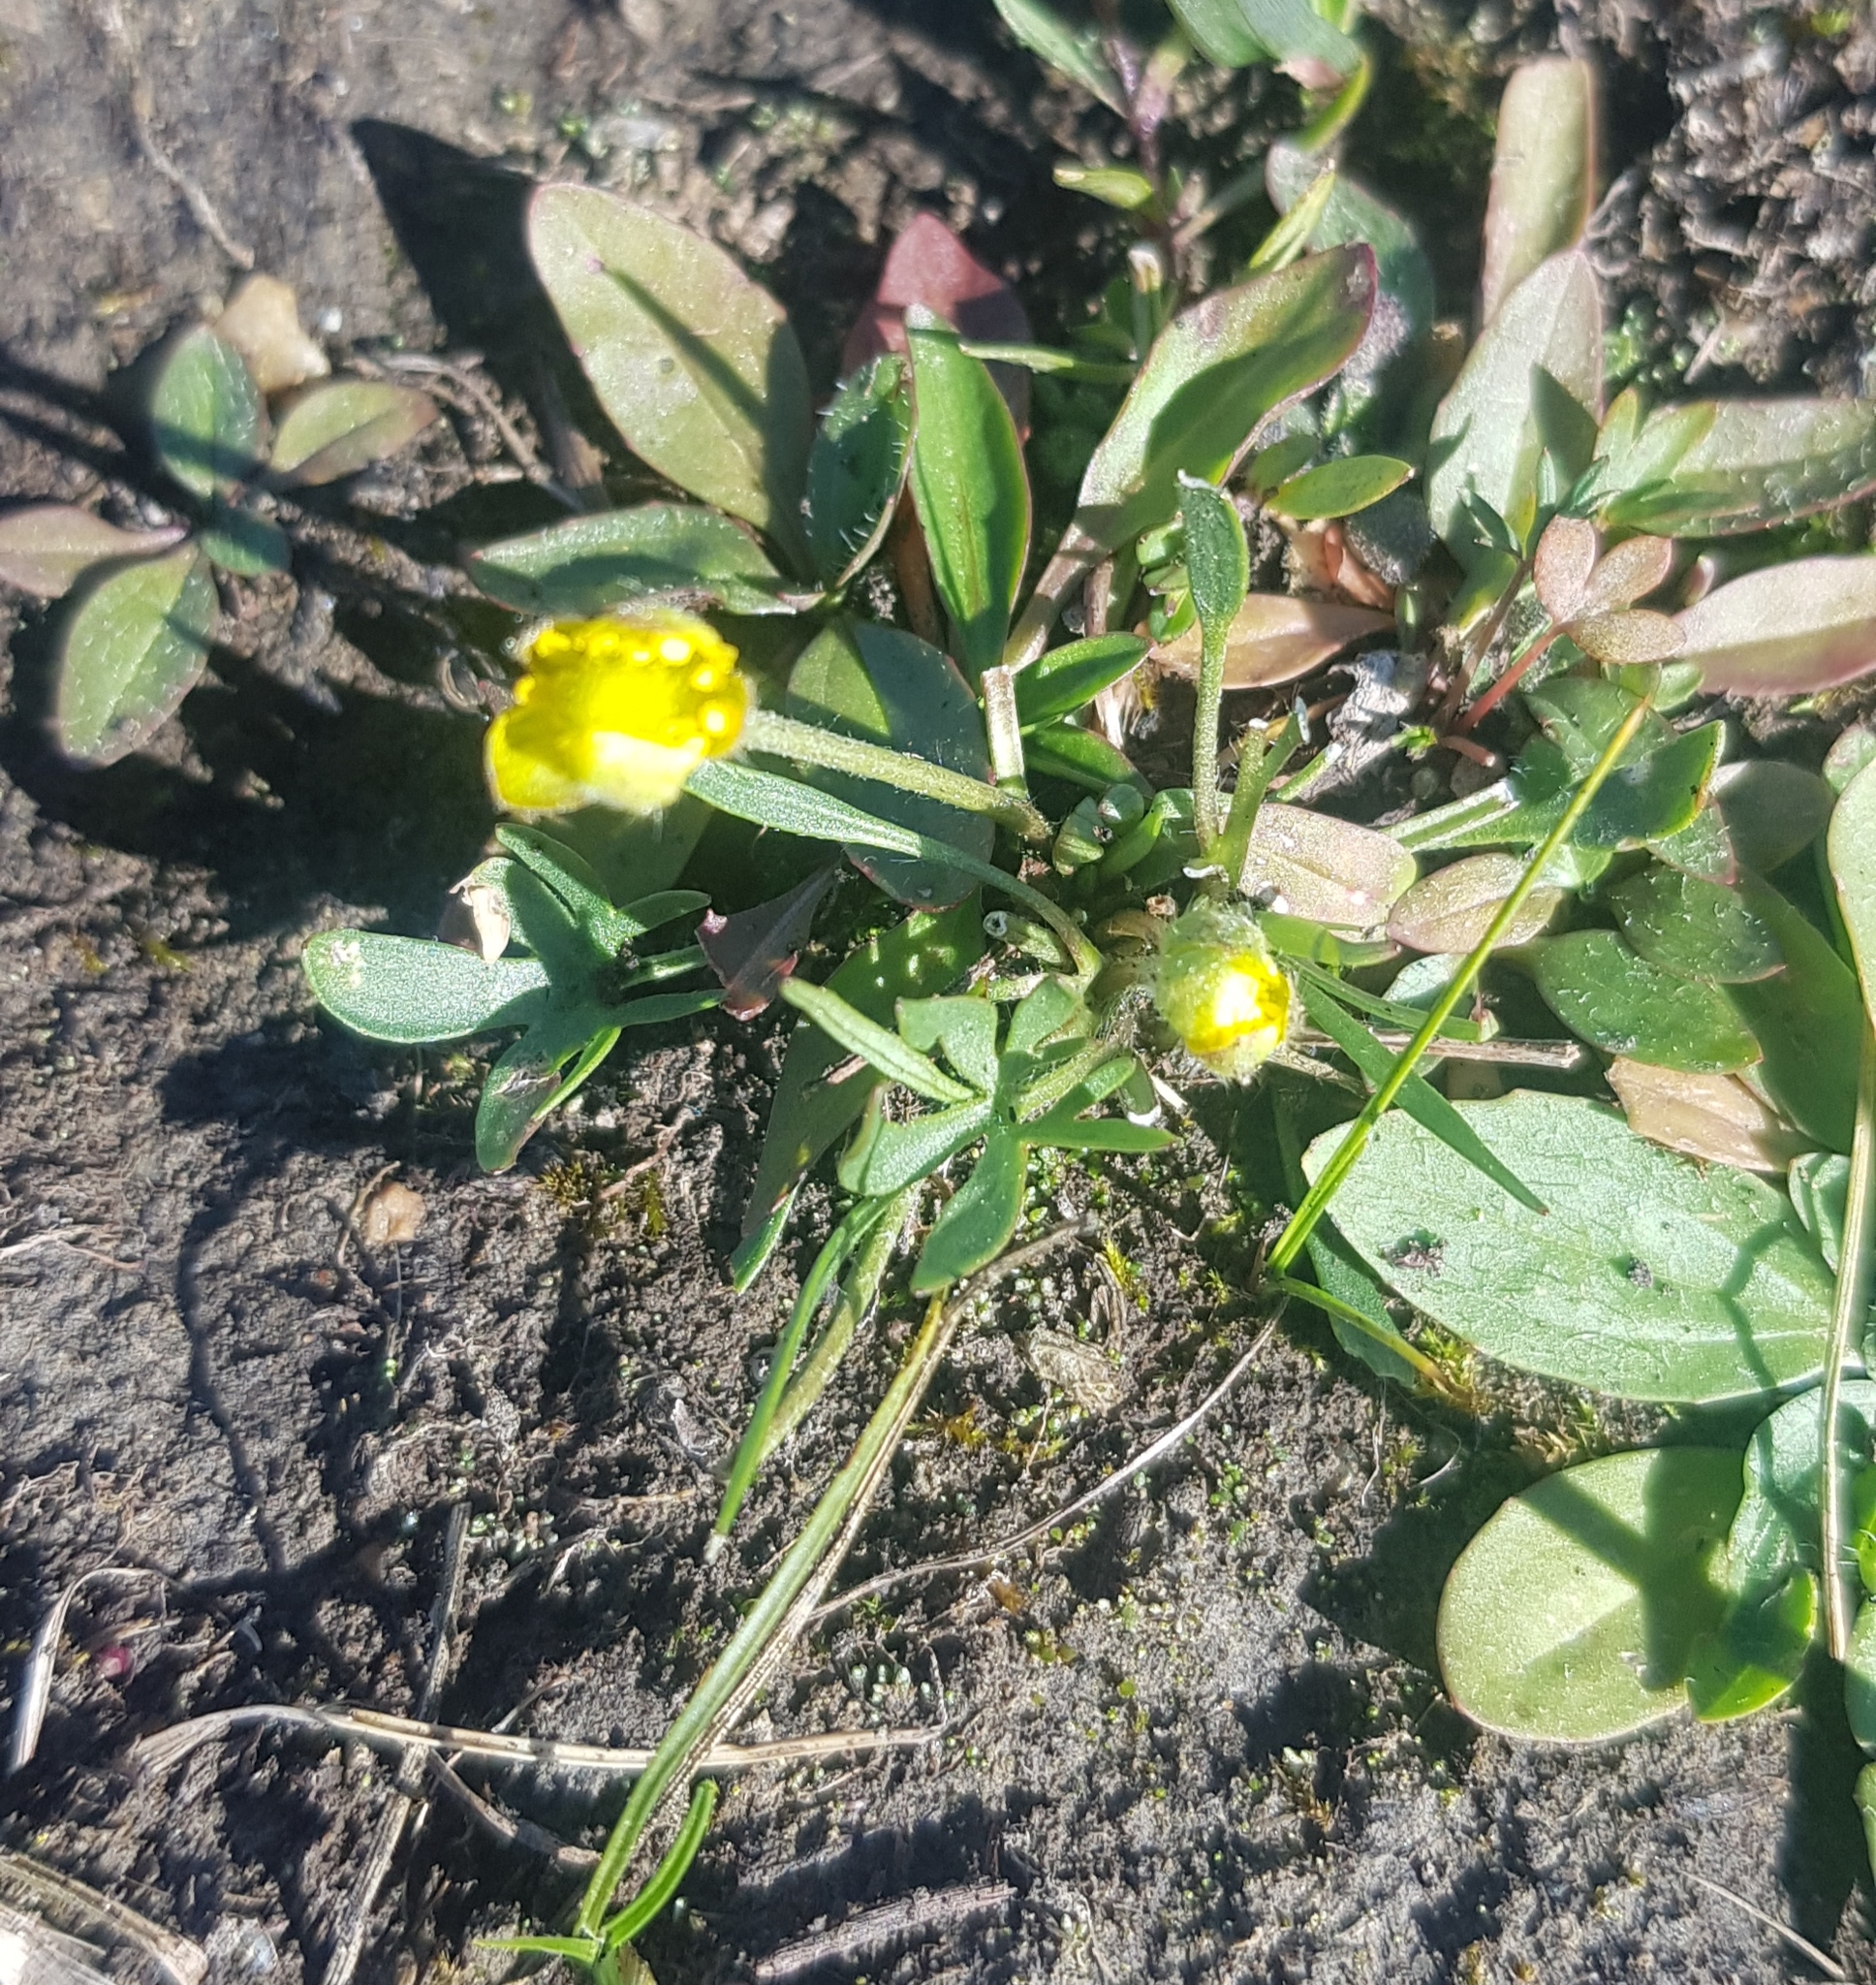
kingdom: Plantae
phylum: Tracheophyta
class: Magnoliopsida
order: Ranunculales
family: Ranunculaceae
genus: Ranunculus
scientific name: Ranunculus propinquus
